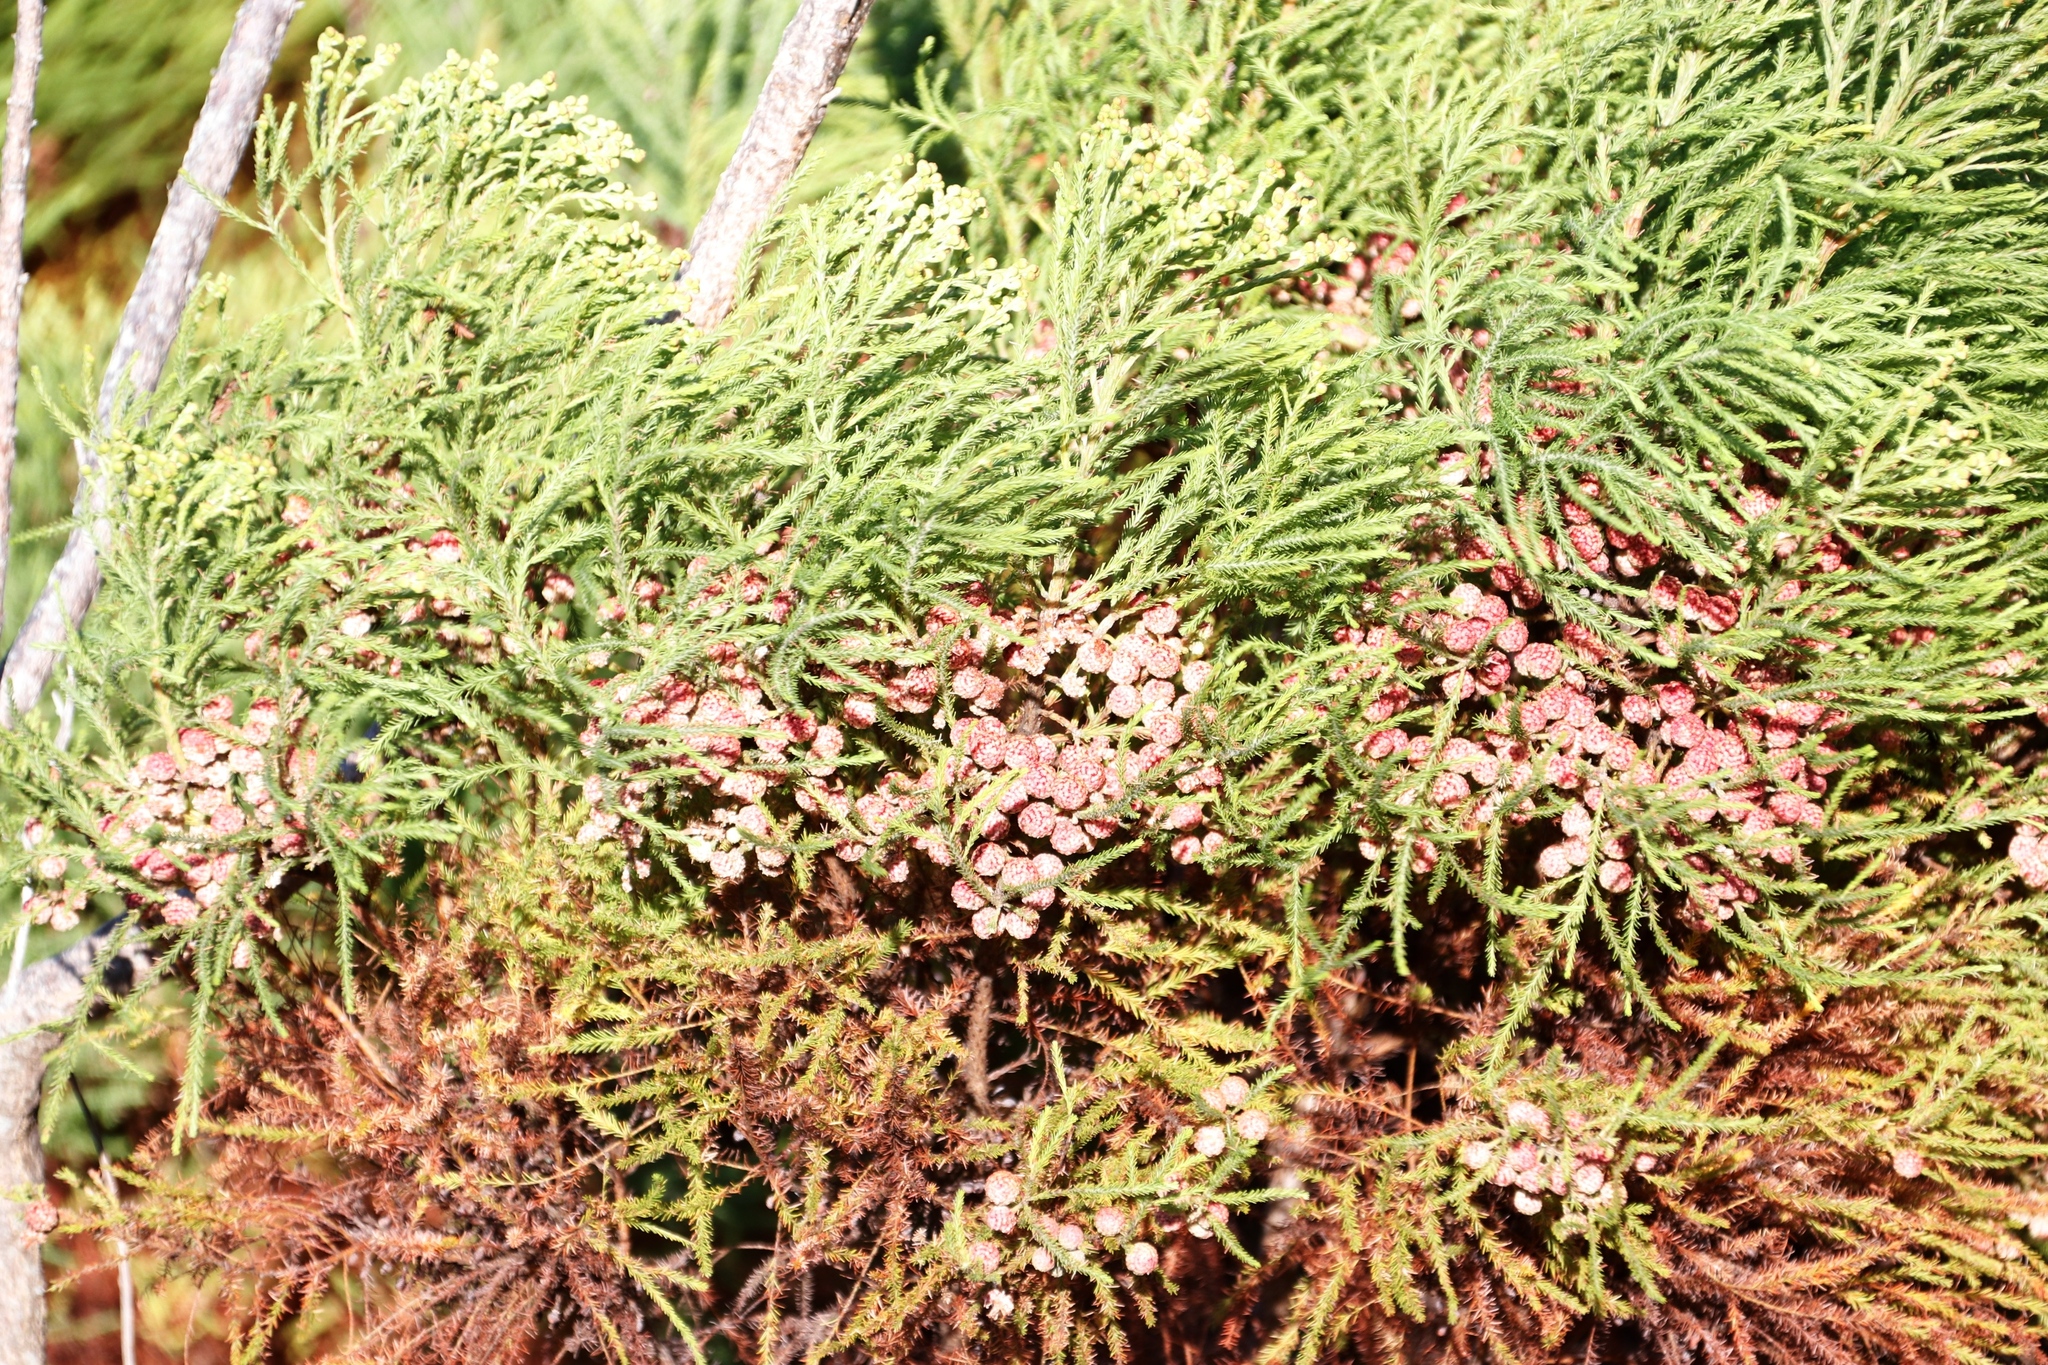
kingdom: Plantae
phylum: Tracheophyta
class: Magnoliopsida
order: Bruniales
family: Bruniaceae
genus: Berzelia
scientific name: Berzelia lanuginosa
